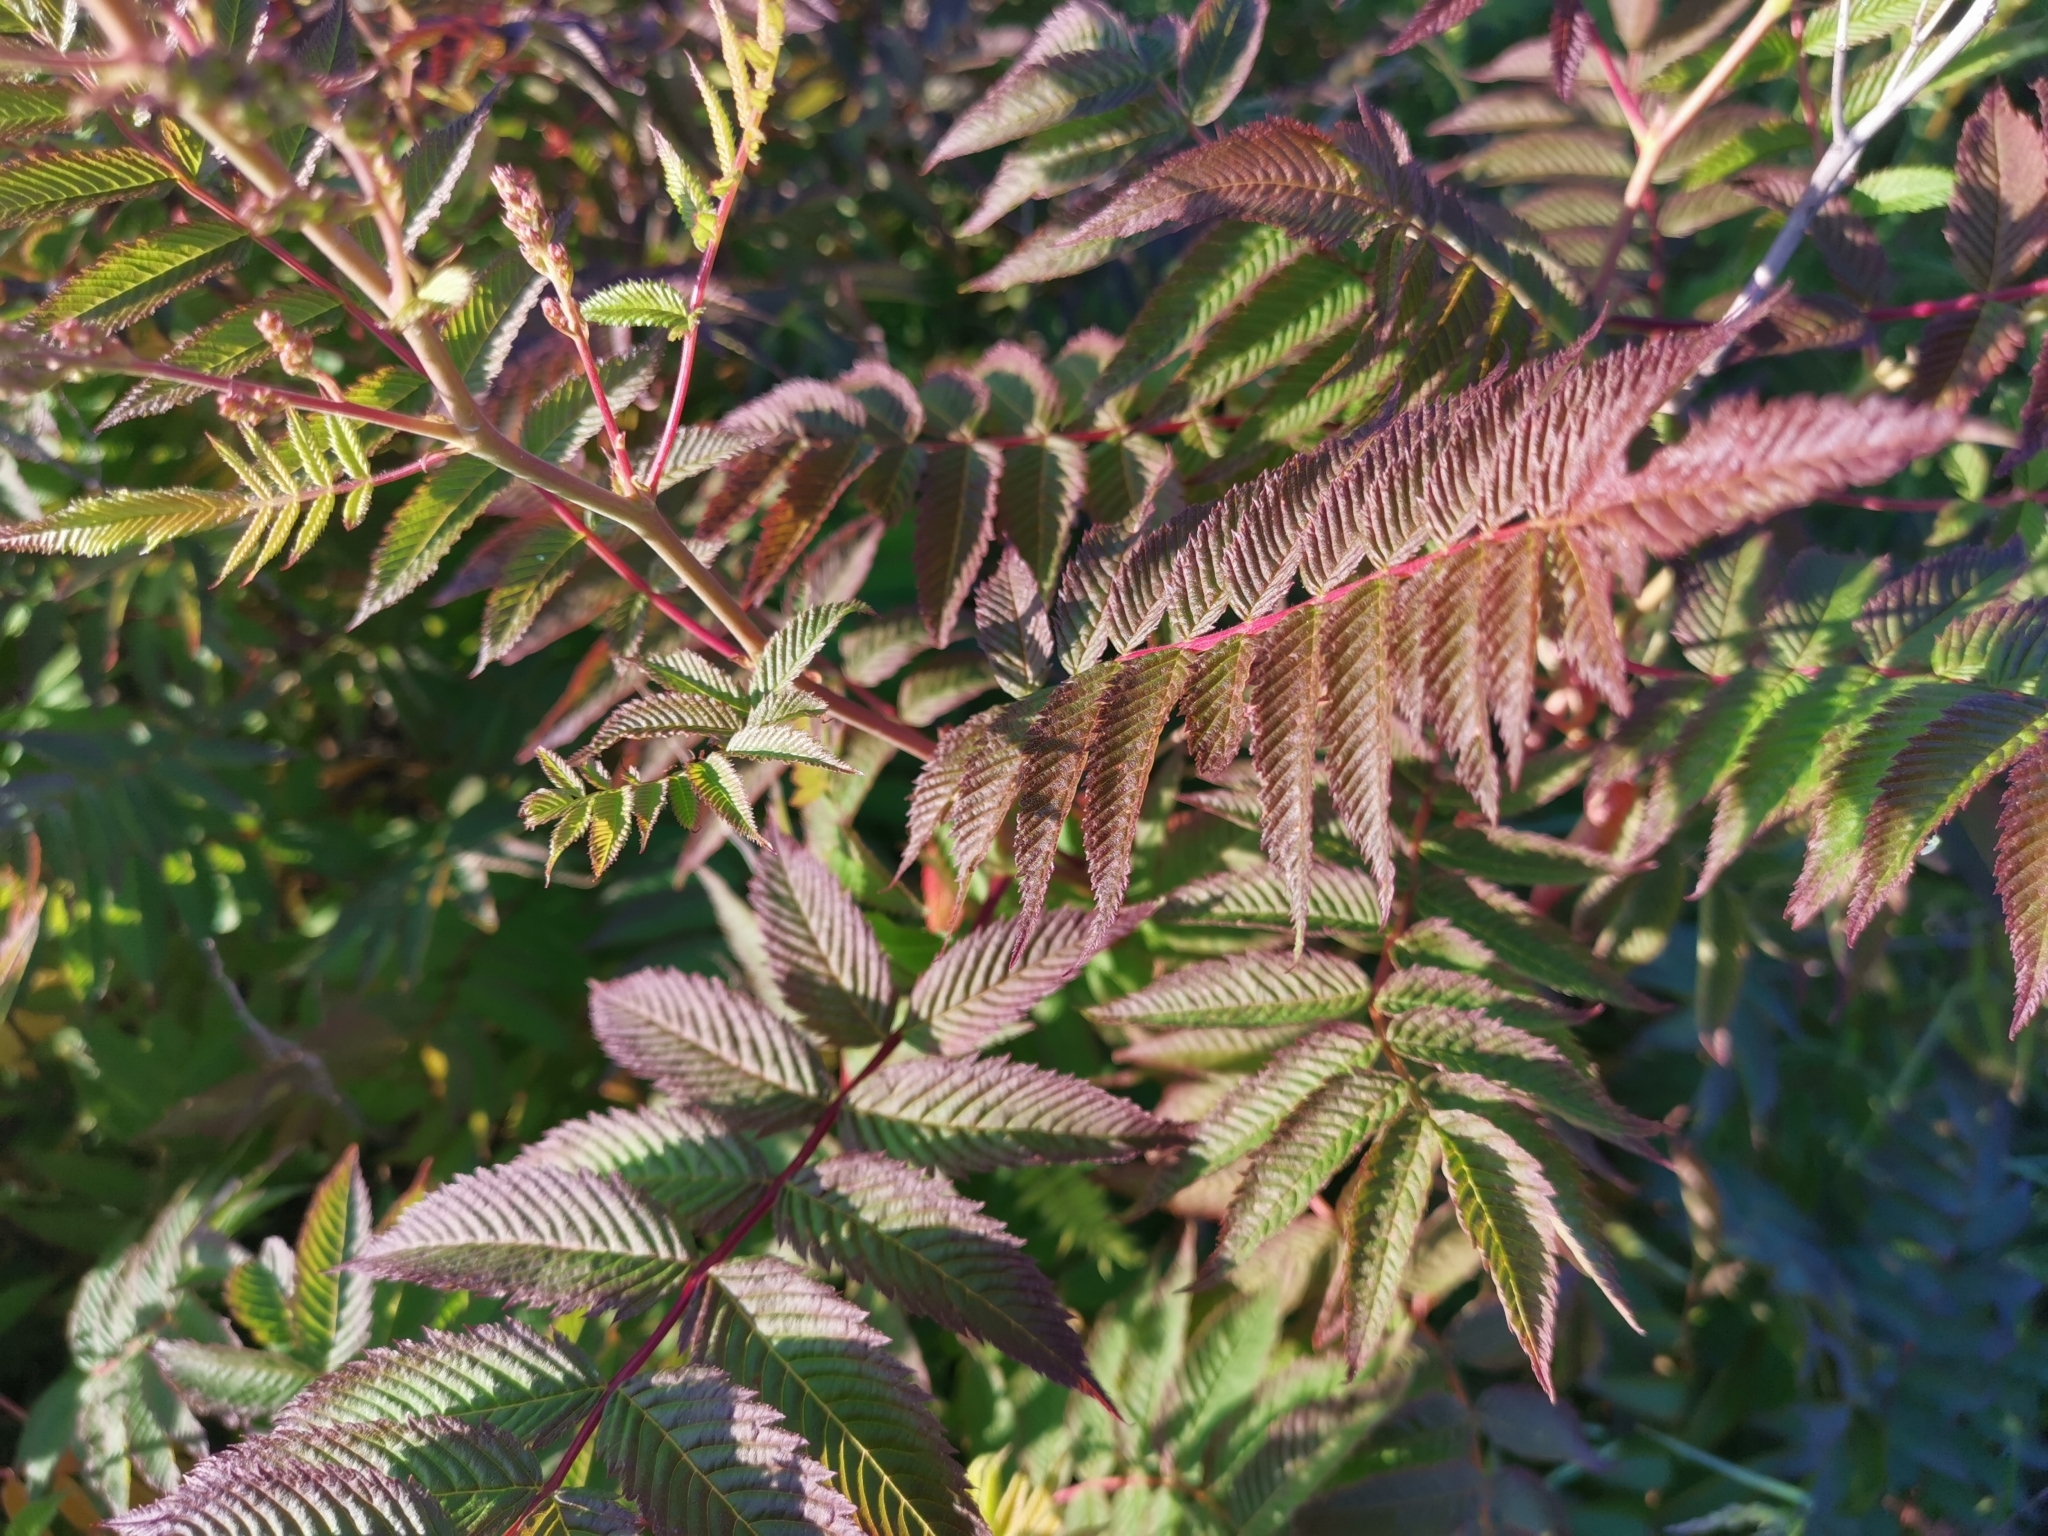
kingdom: Plantae
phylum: Tracheophyta
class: Magnoliopsida
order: Rosales
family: Rosaceae
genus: Sorbaria
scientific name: Sorbaria sorbifolia
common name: False spiraea
